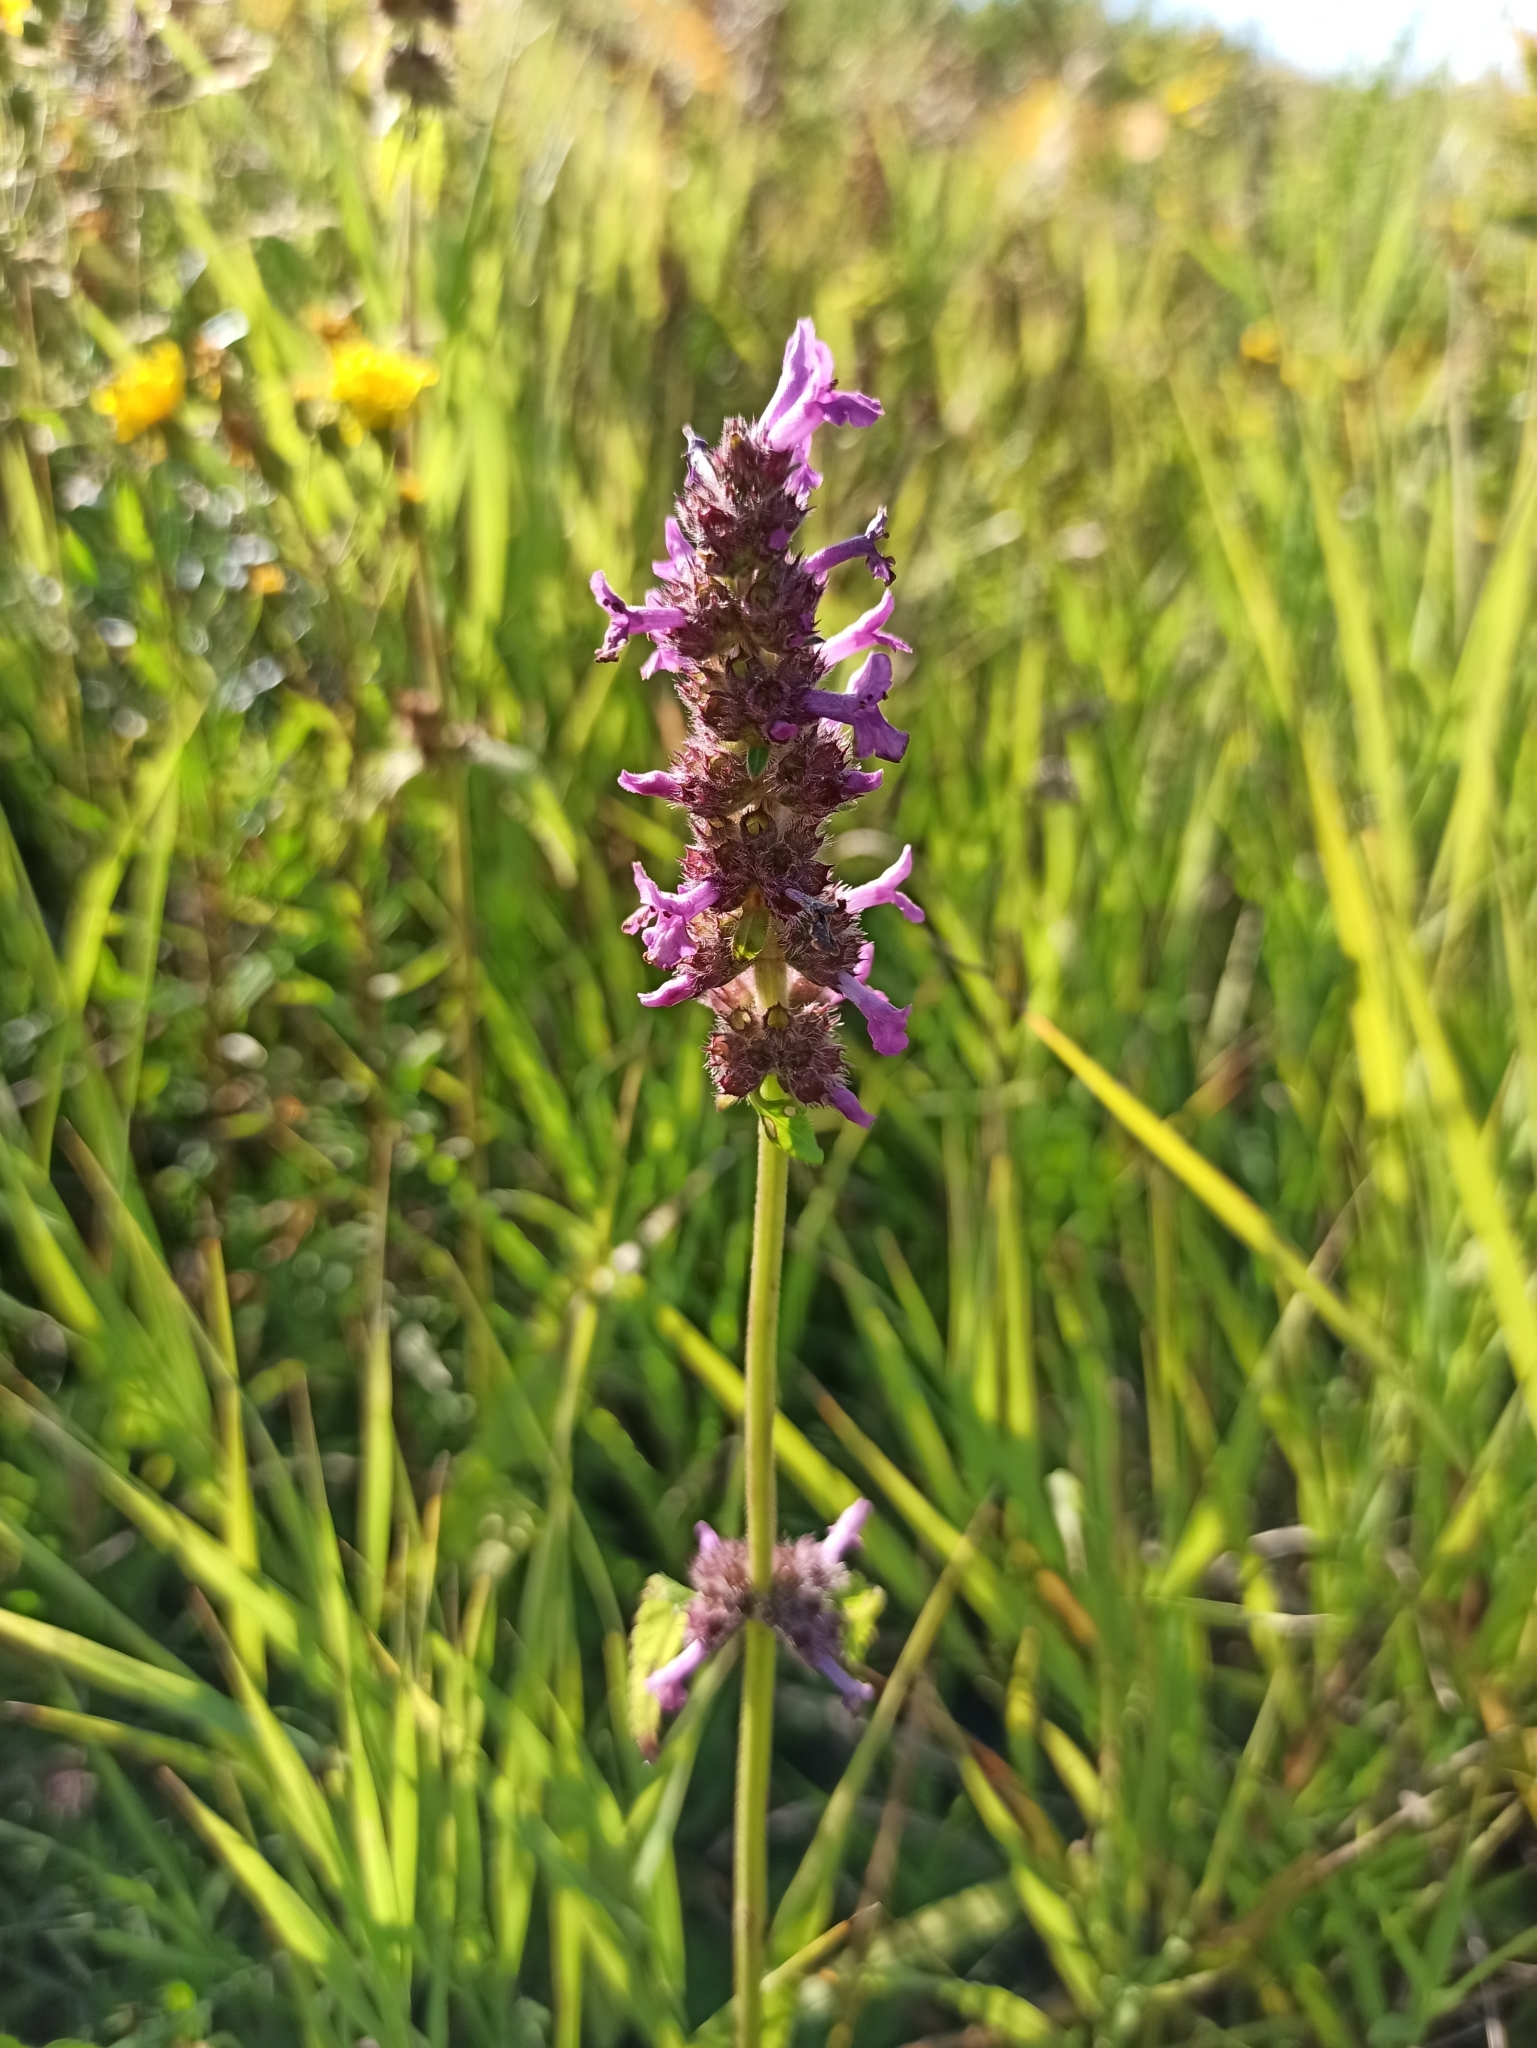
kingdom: Plantae
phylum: Tracheophyta
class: Magnoliopsida
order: Lamiales
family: Lamiaceae
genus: Betonica
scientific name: Betonica officinalis
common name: Bishop's-wort
